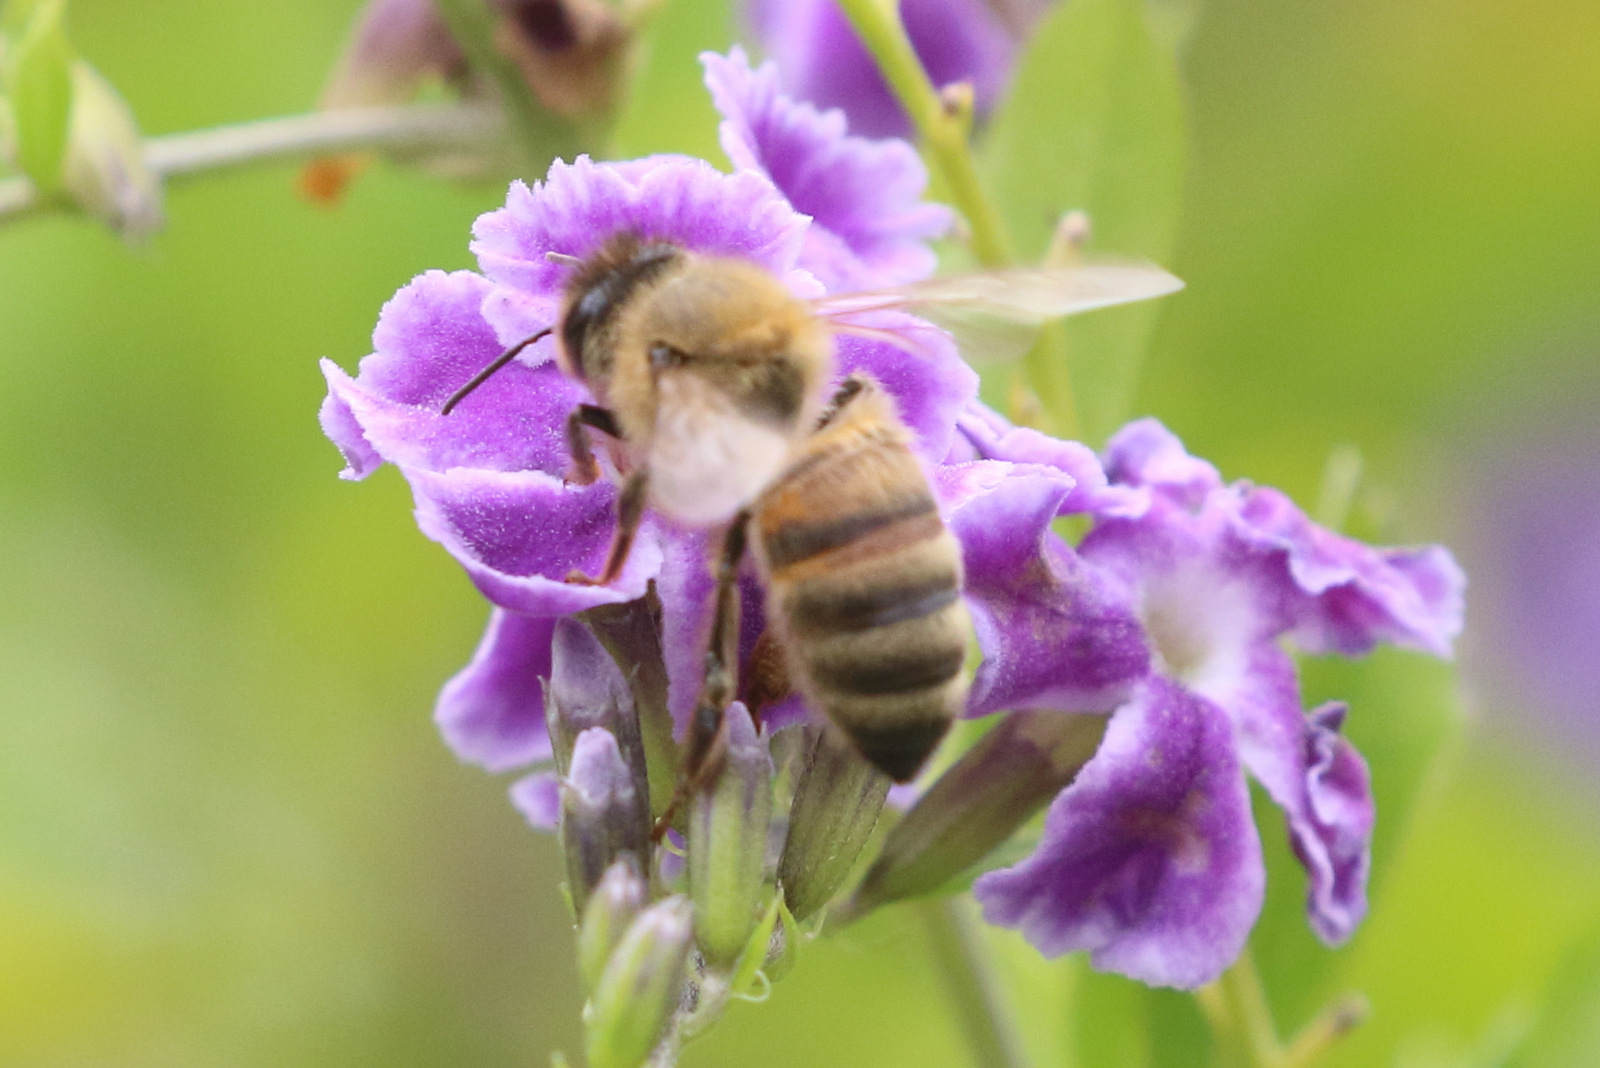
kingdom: Animalia
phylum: Arthropoda
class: Insecta
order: Hymenoptera
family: Apidae
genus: Apis
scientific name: Apis mellifera
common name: Honey bee
